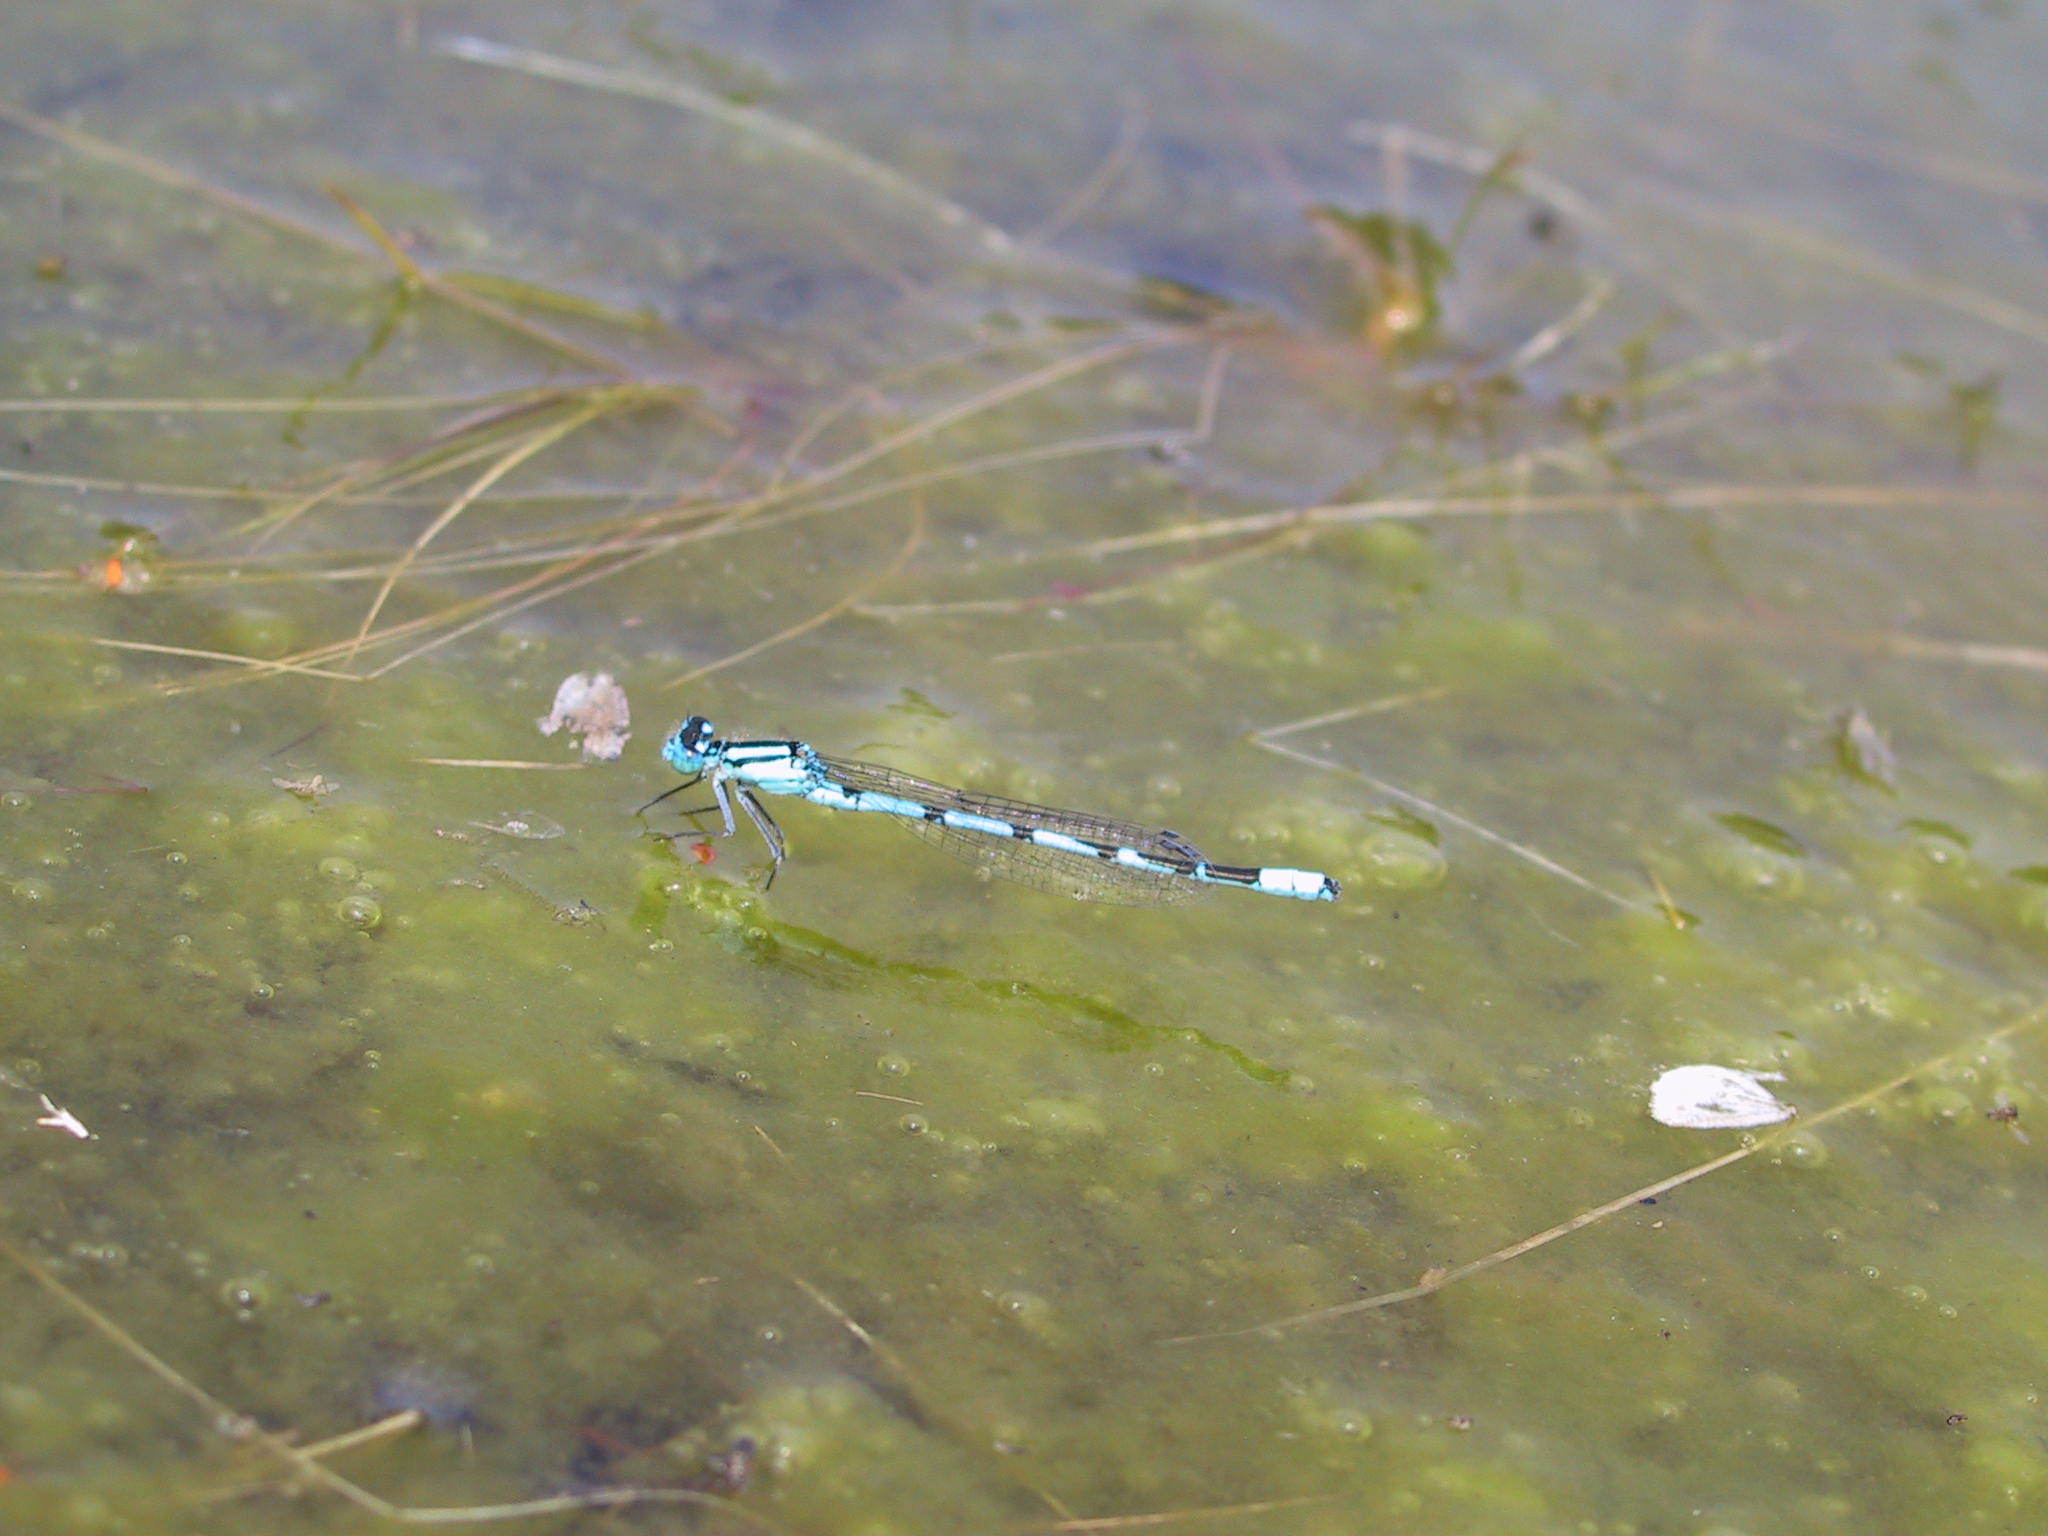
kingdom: Animalia
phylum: Arthropoda
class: Insecta
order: Odonata
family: Coenagrionidae
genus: Enallagma
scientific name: Enallagma cyathigerum
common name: Common blue damselfly
